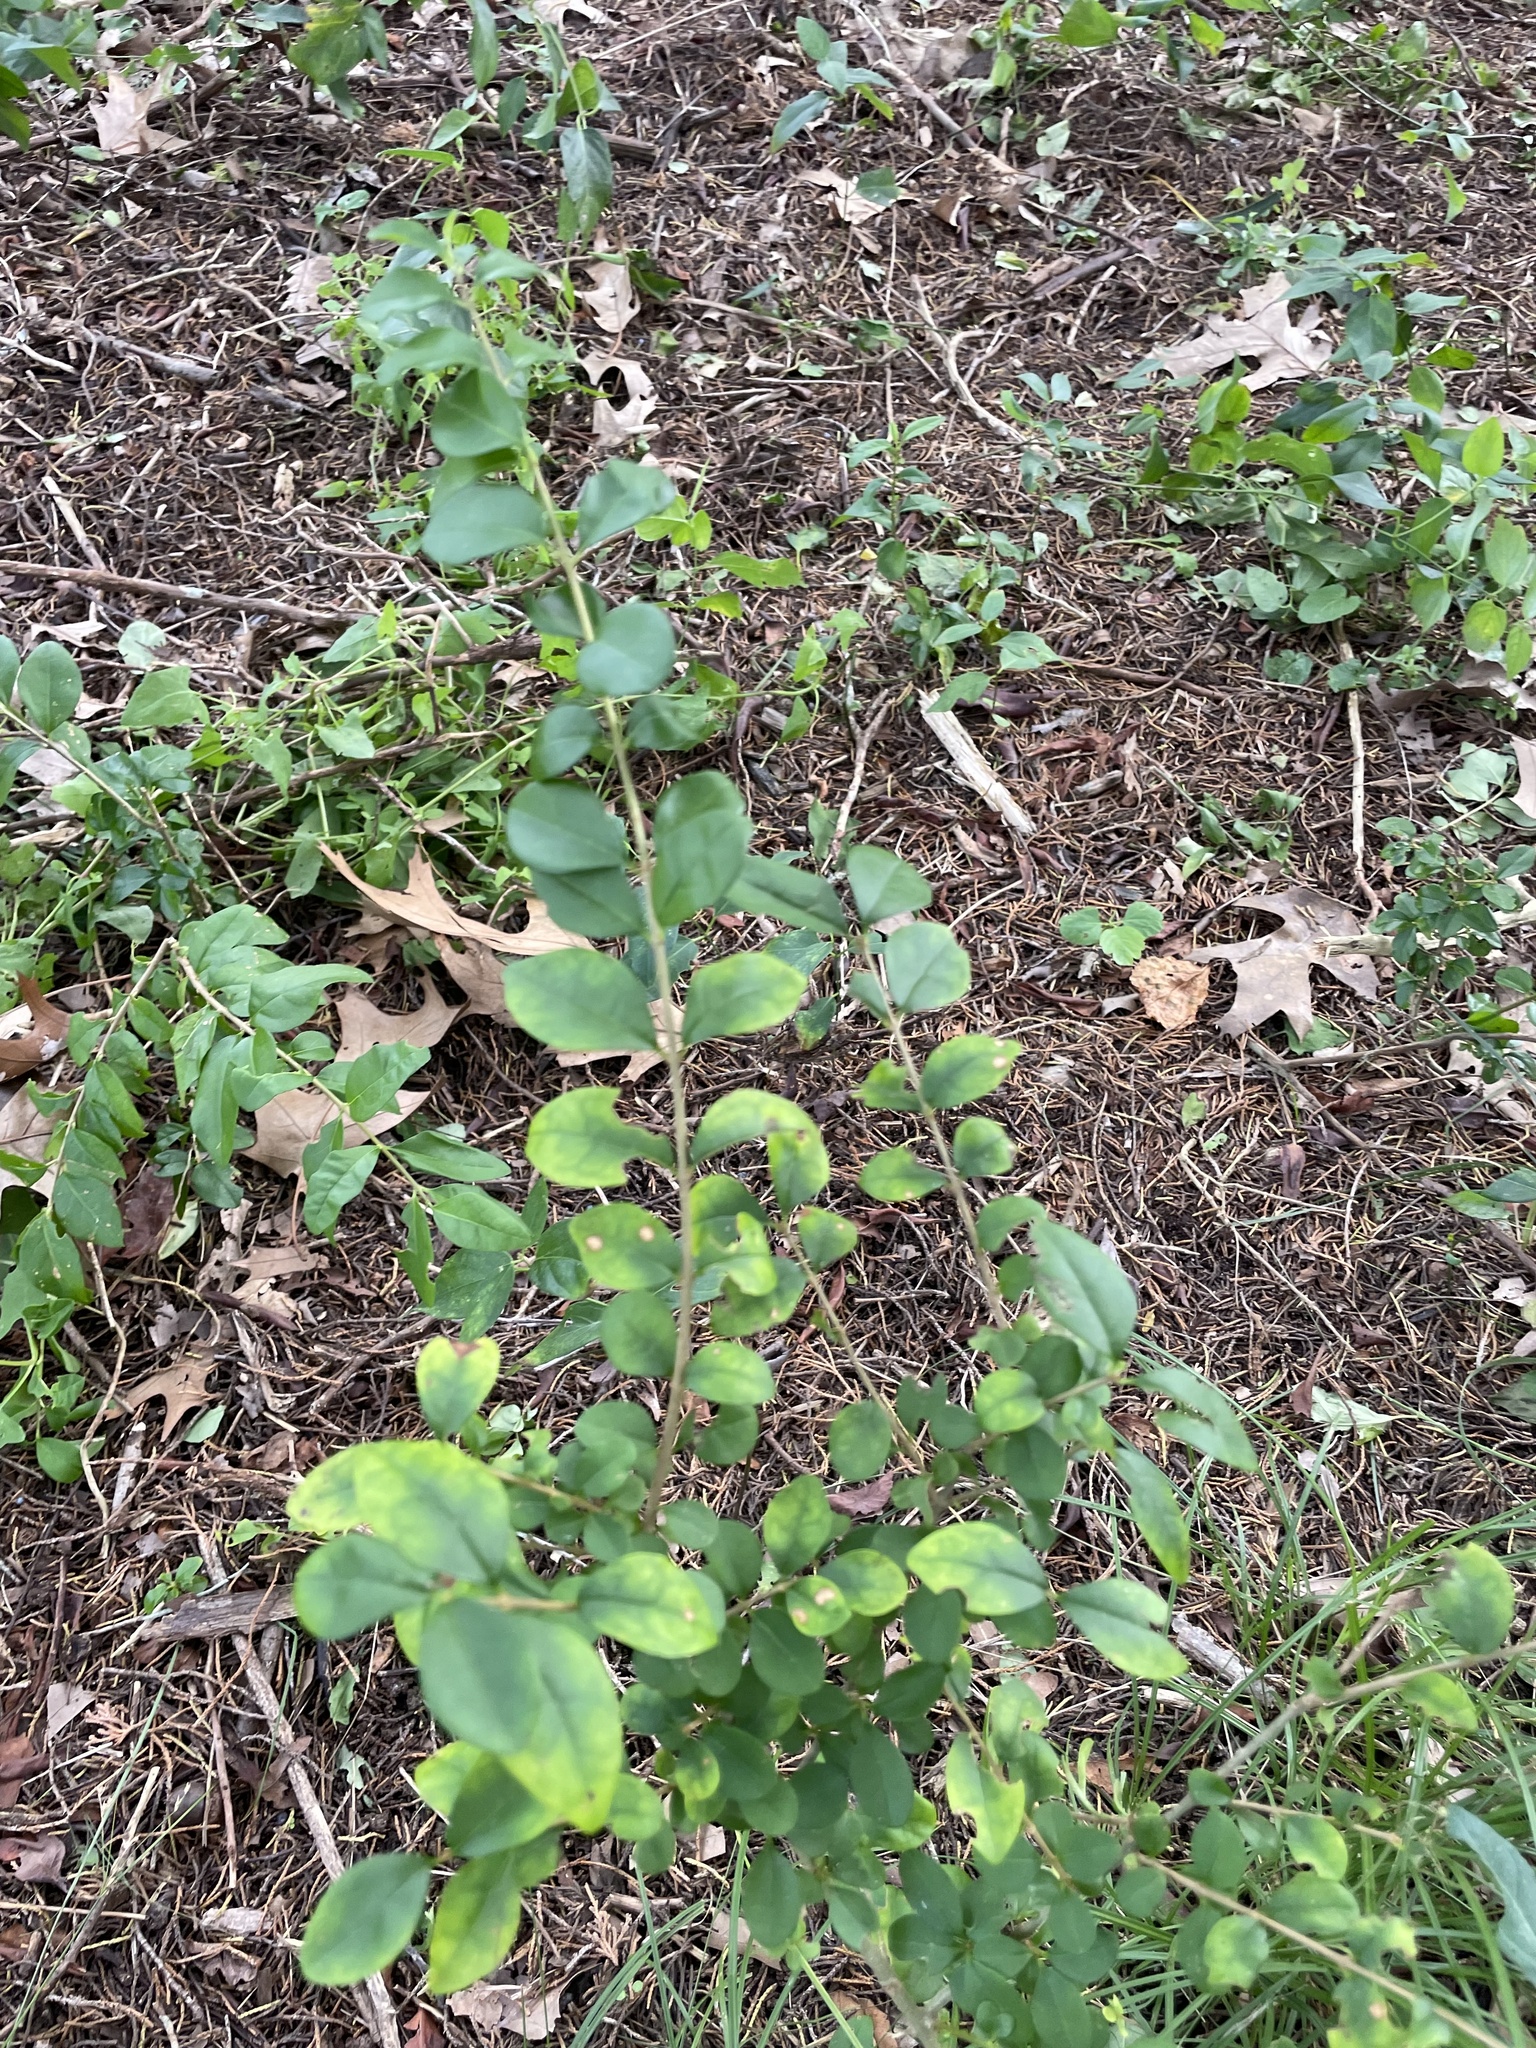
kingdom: Plantae
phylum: Tracheophyta
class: Magnoliopsida
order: Lamiales
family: Oleaceae
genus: Ligustrum
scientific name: Ligustrum sinense
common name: Chinese privet
